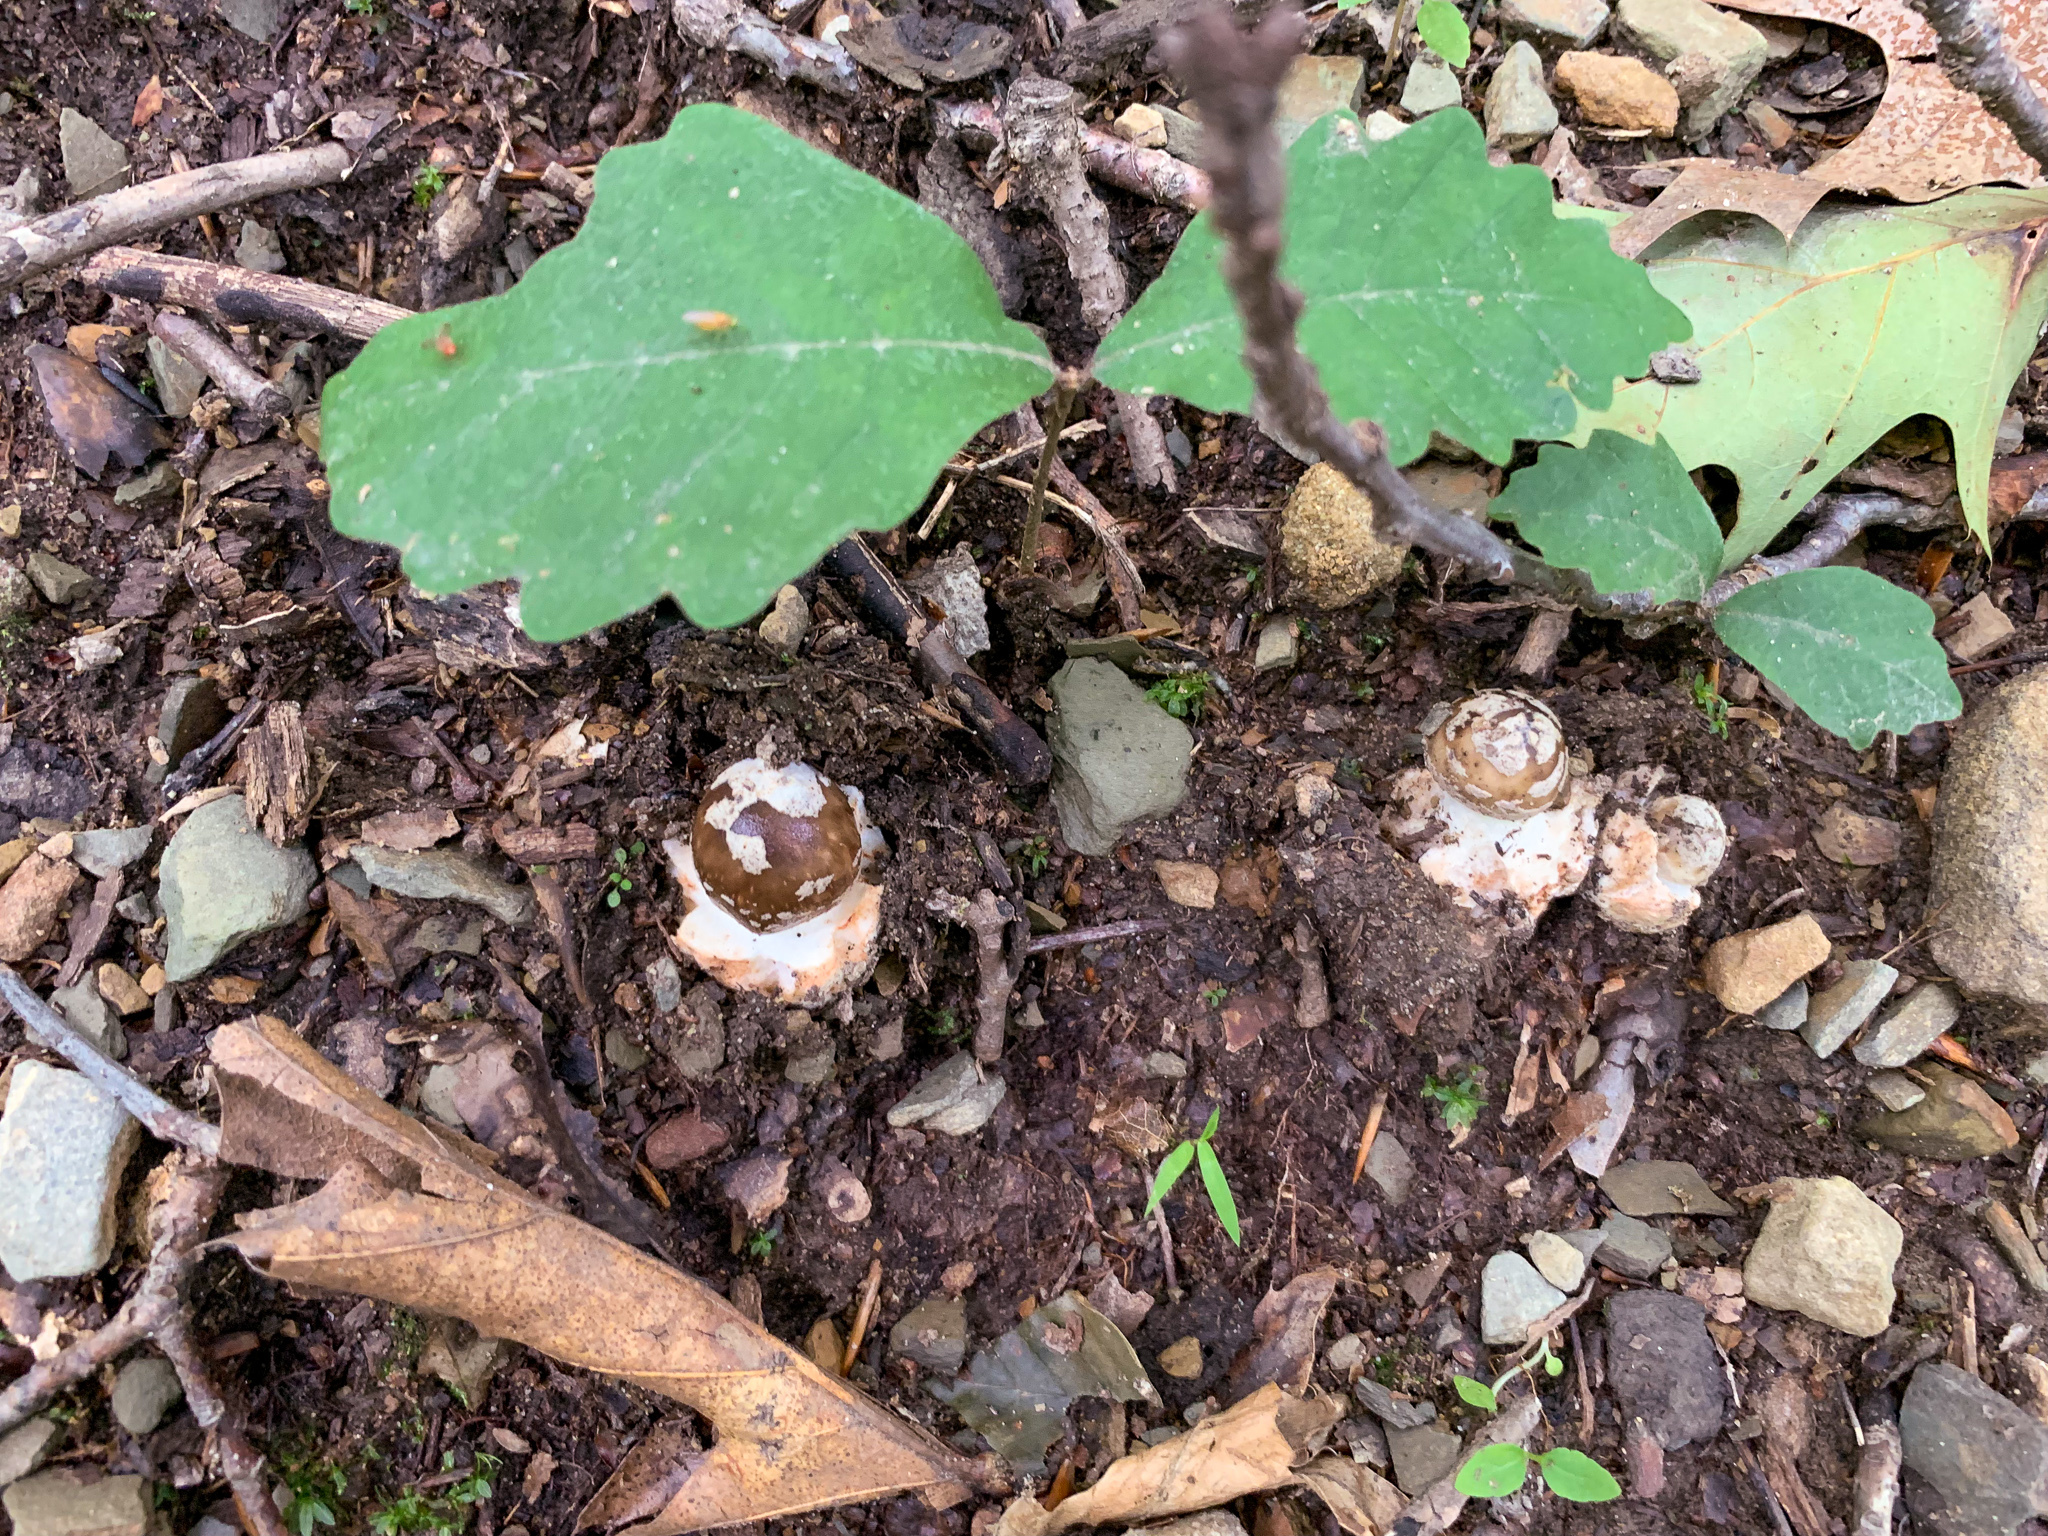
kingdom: Fungi
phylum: Basidiomycota
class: Agaricomycetes
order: Agaricales
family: Amanitaceae
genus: Amanita
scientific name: Amanita brunnescens
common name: Brown american star-footed amanita
